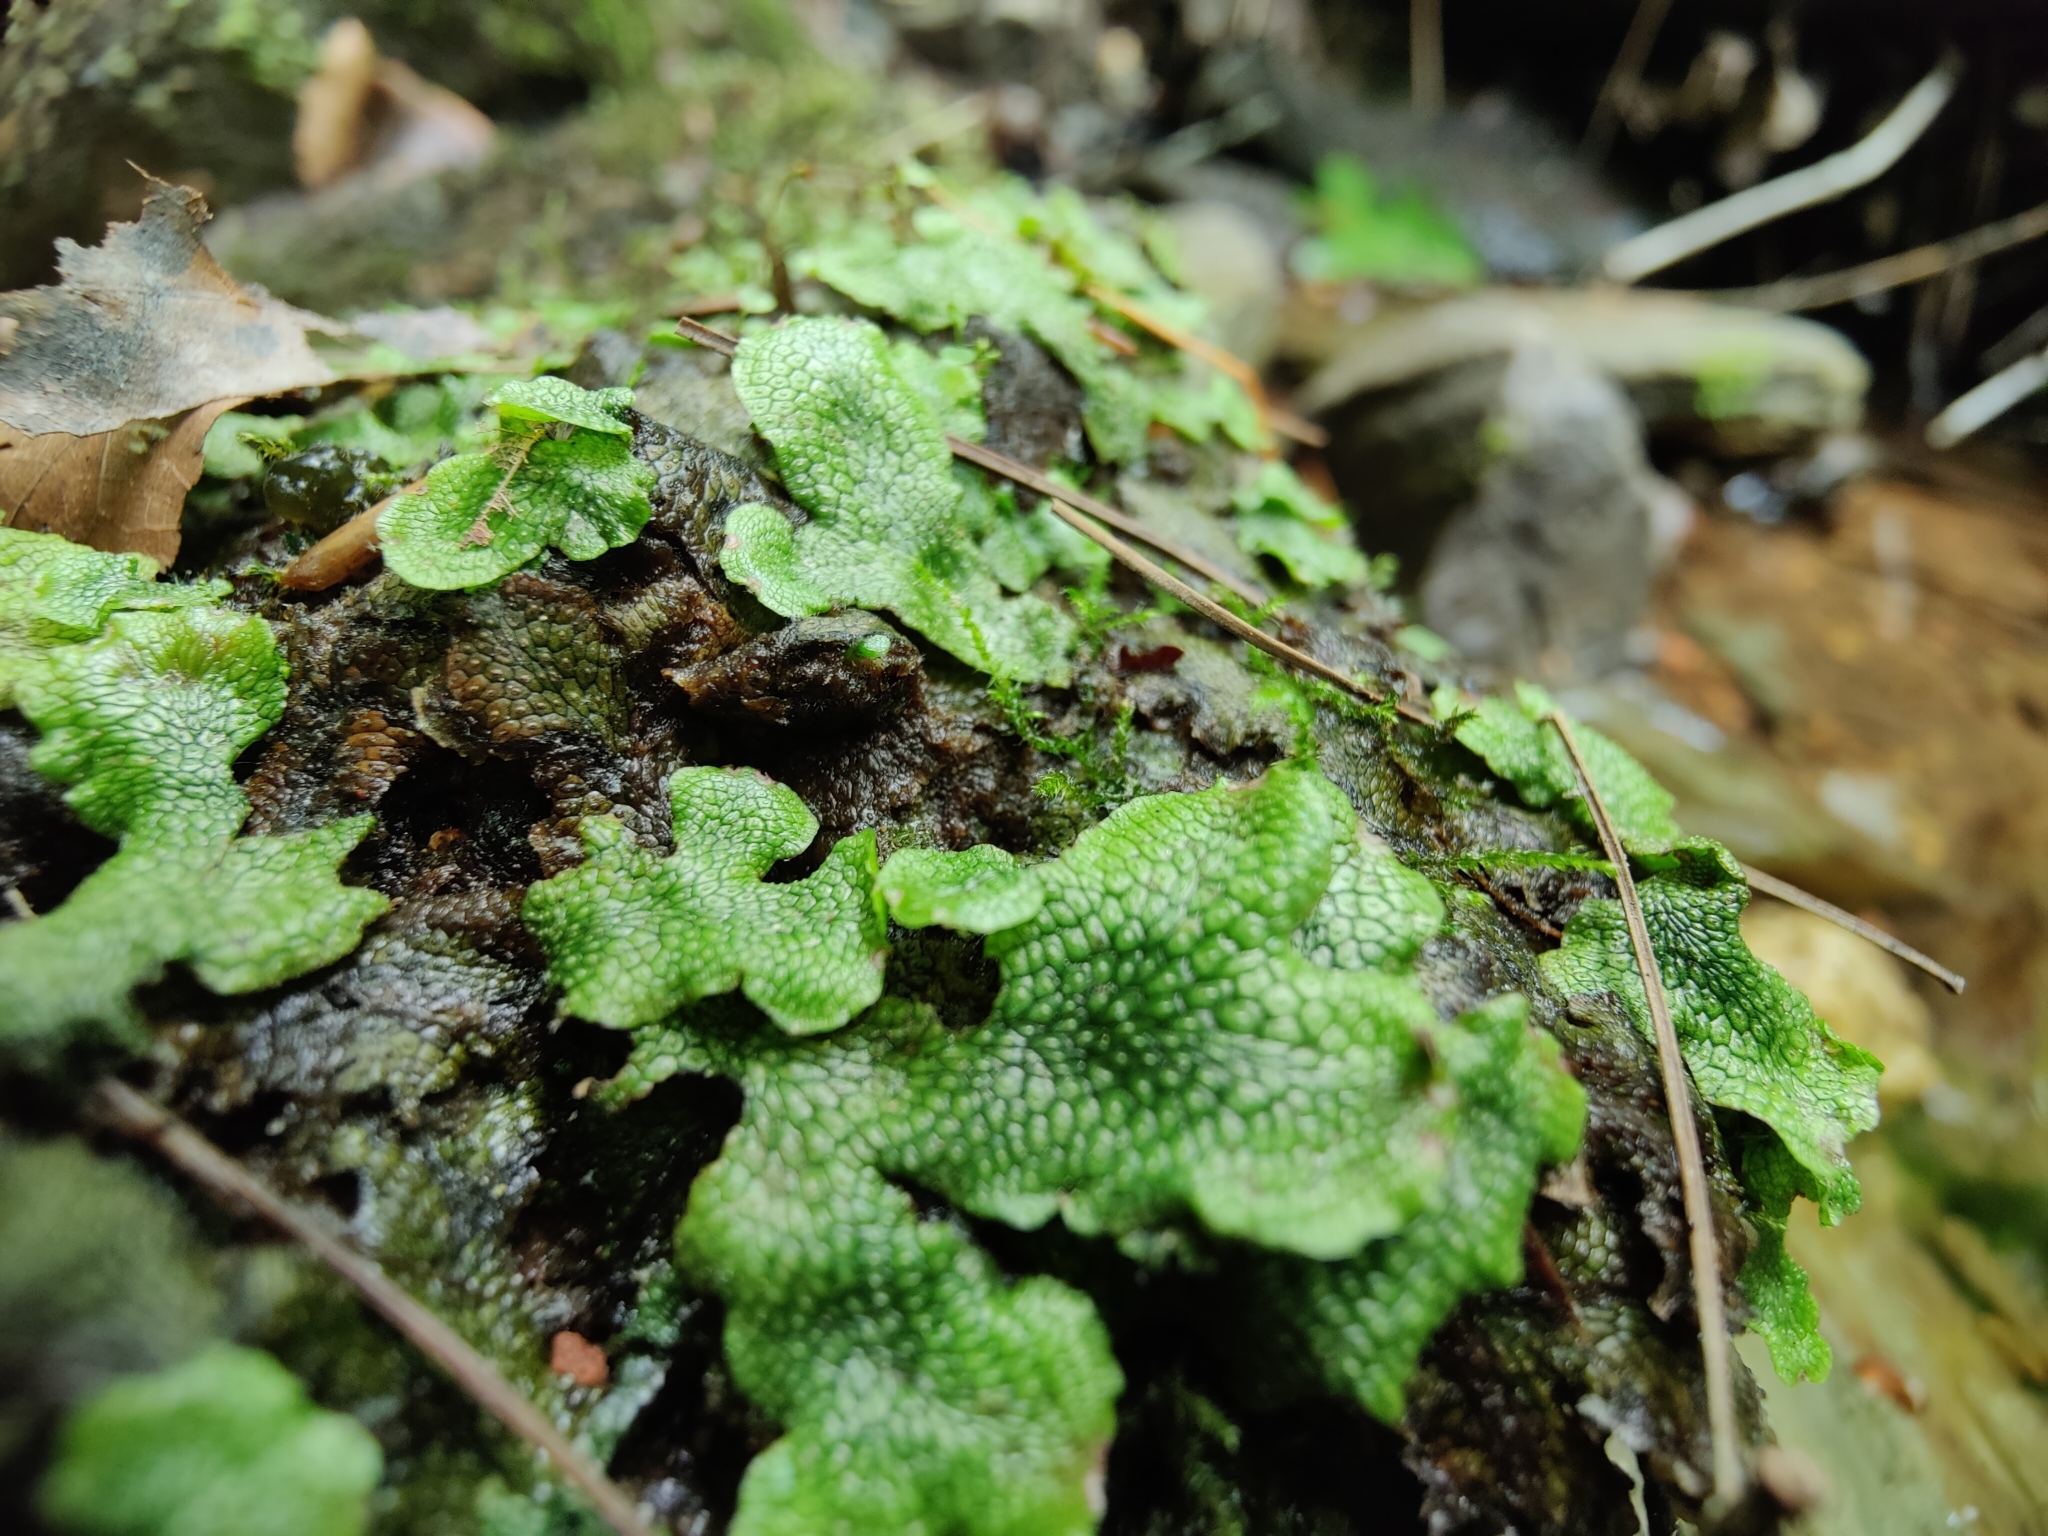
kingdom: Plantae
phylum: Marchantiophyta
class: Marchantiopsida
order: Marchantiales
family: Conocephalaceae
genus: Conocephalum
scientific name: Conocephalum salebrosum
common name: Cat-tongue liverwort
